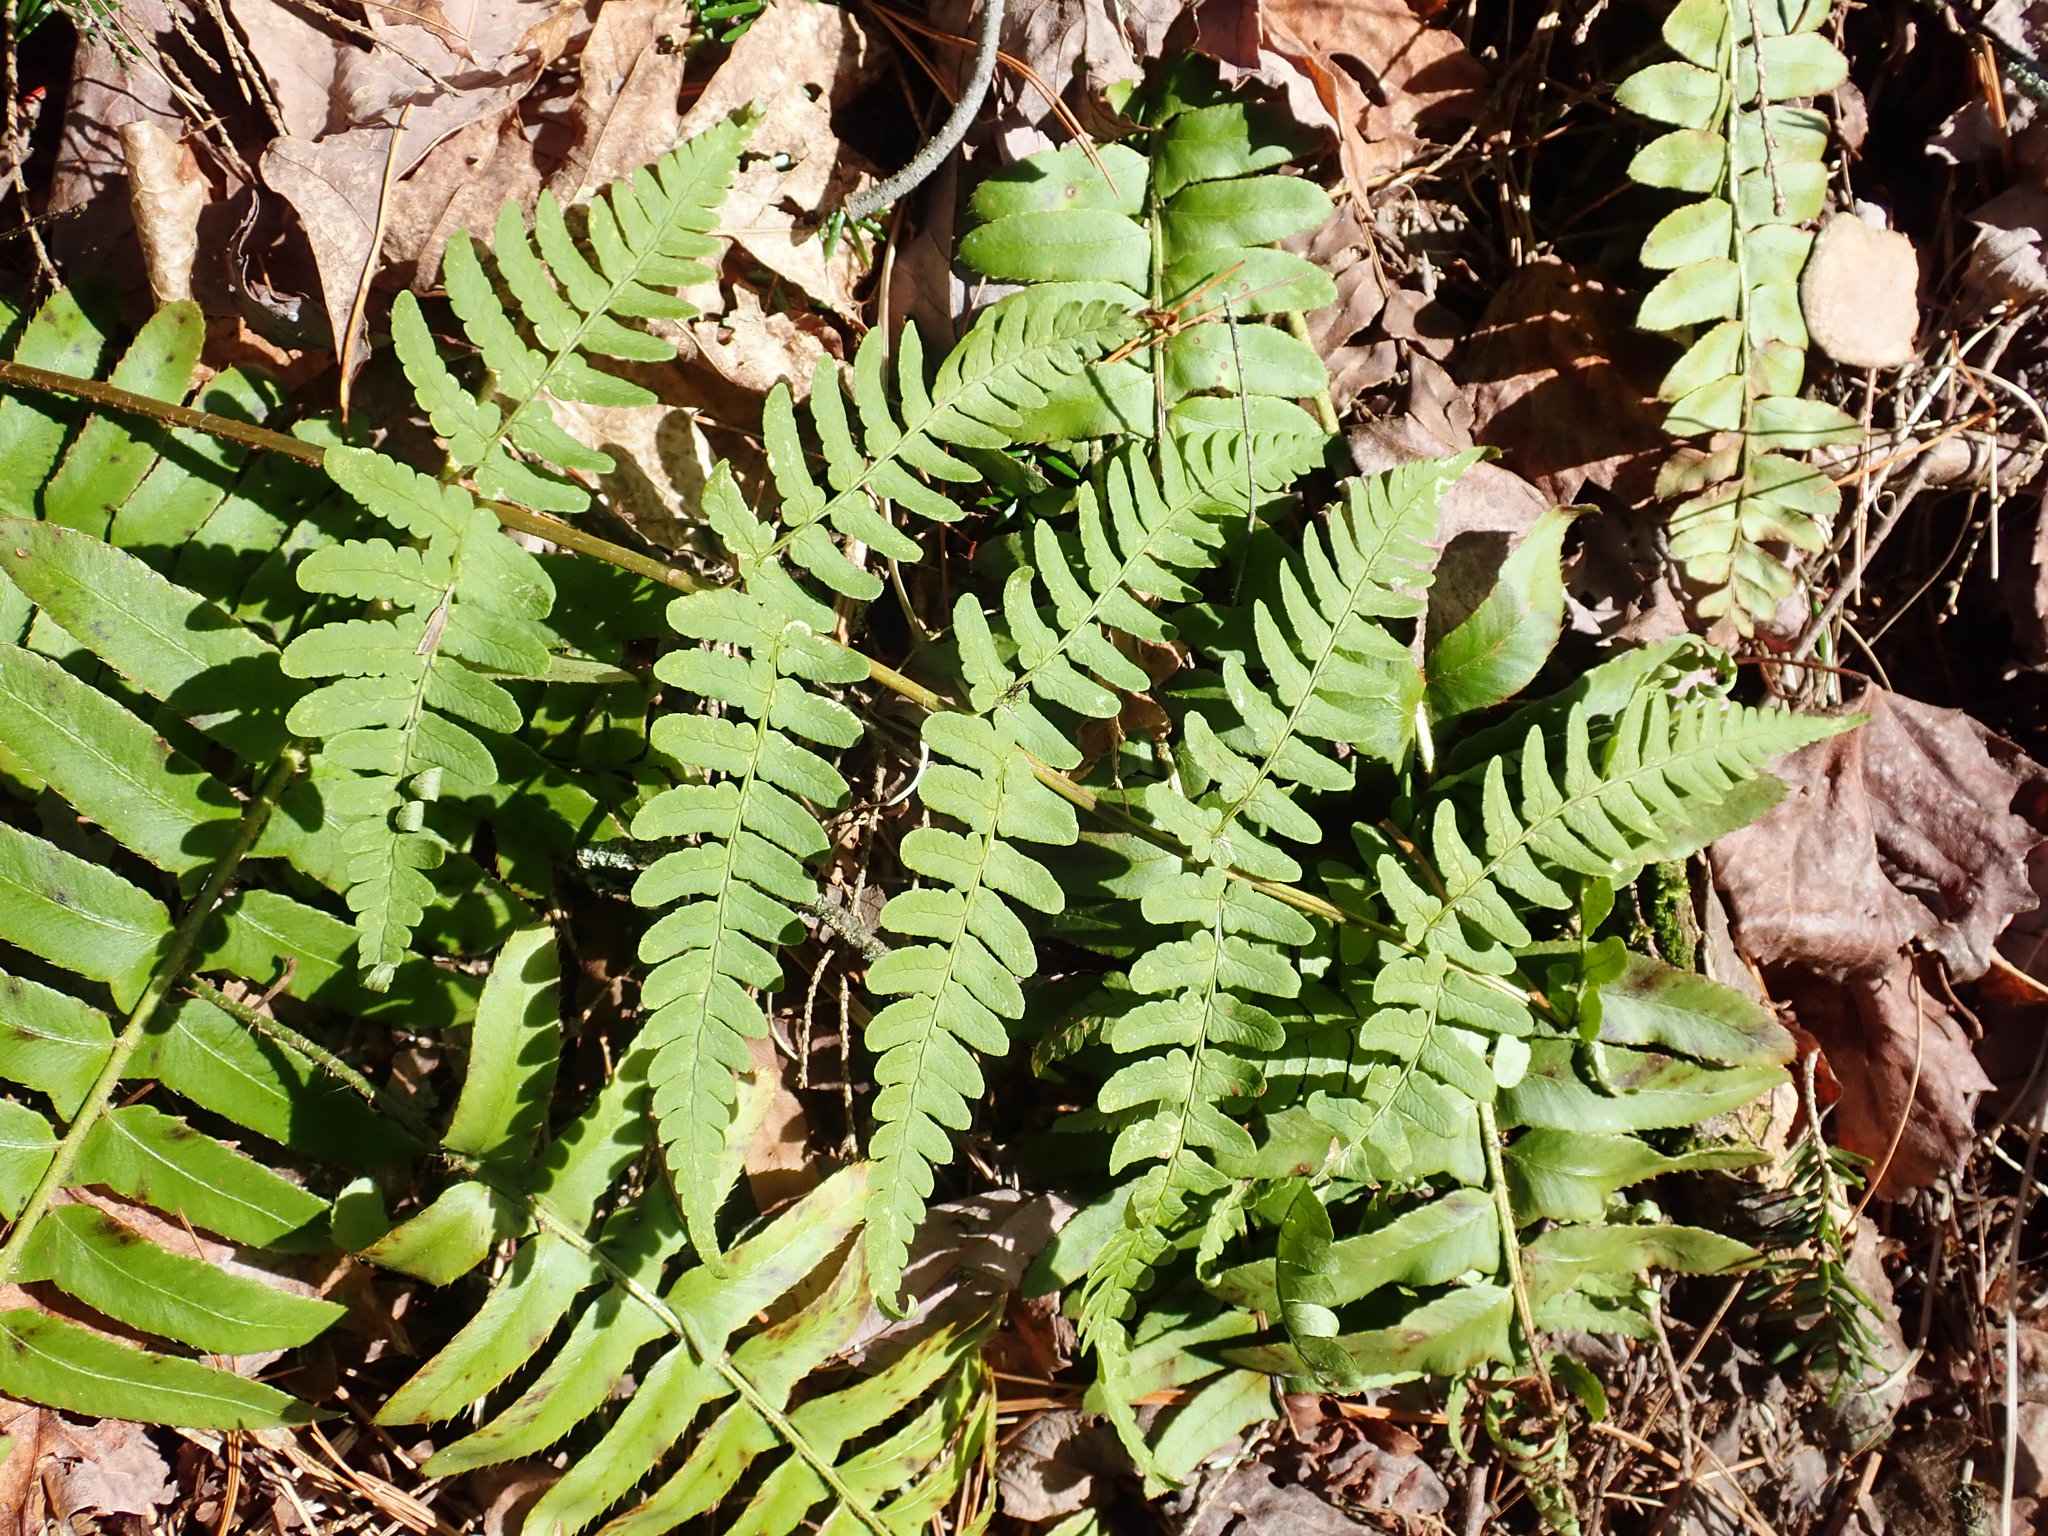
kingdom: Plantae
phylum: Tracheophyta
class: Polypodiopsida
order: Polypodiales
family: Dryopteridaceae
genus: Dryopteris
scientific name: Dryopteris marginalis
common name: Marginal wood fern
